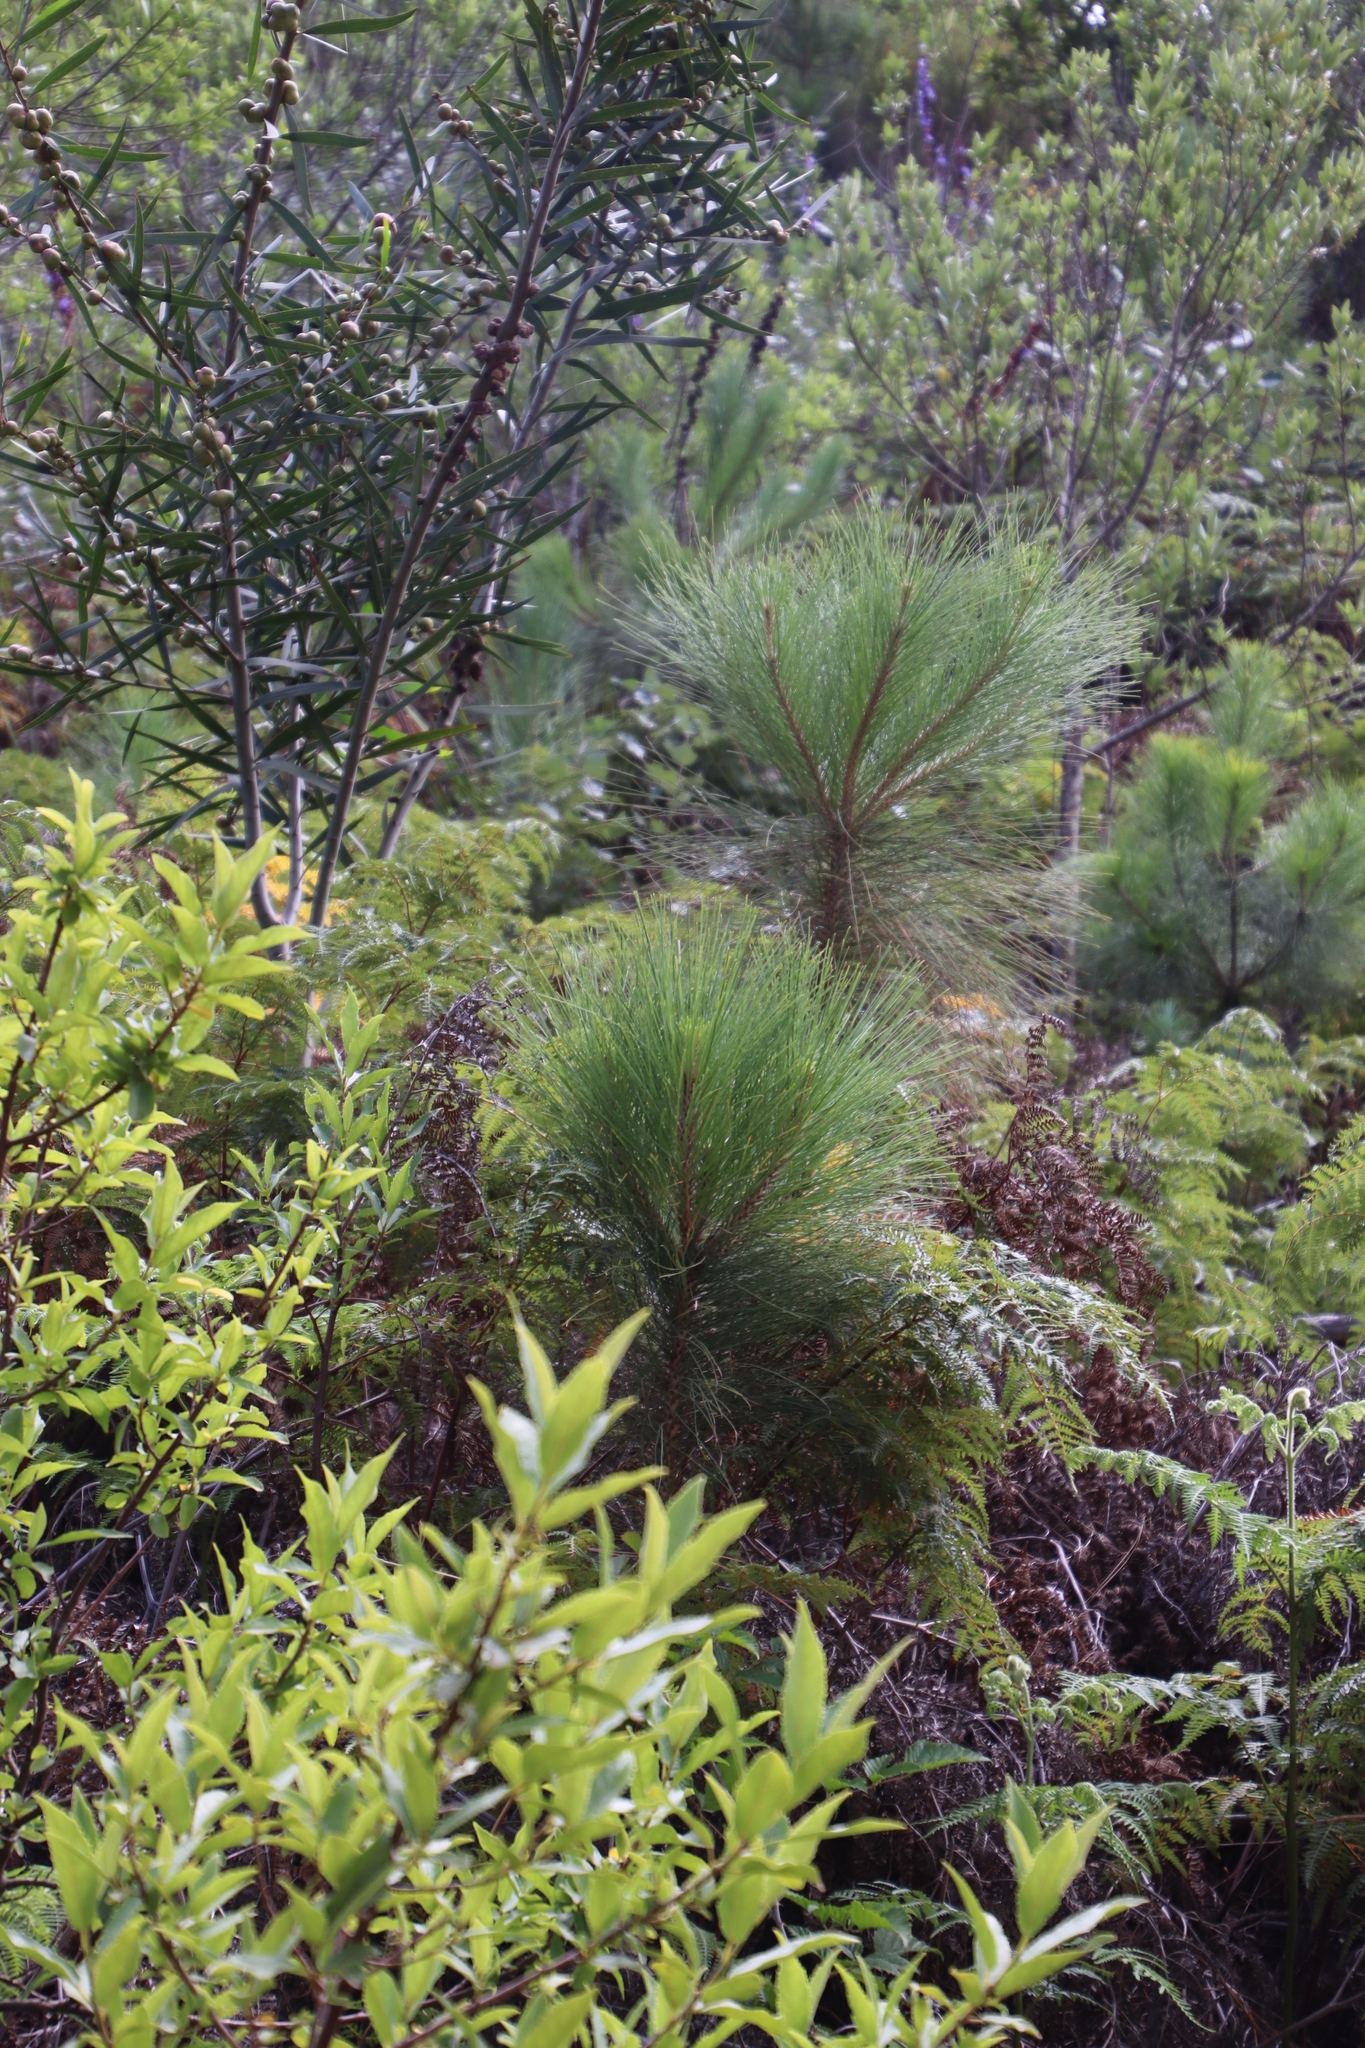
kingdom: Plantae
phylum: Tracheophyta
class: Pinopsida
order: Pinales
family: Pinaceae
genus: Pinus
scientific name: Pinus canariensis
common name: Canary islands pine
